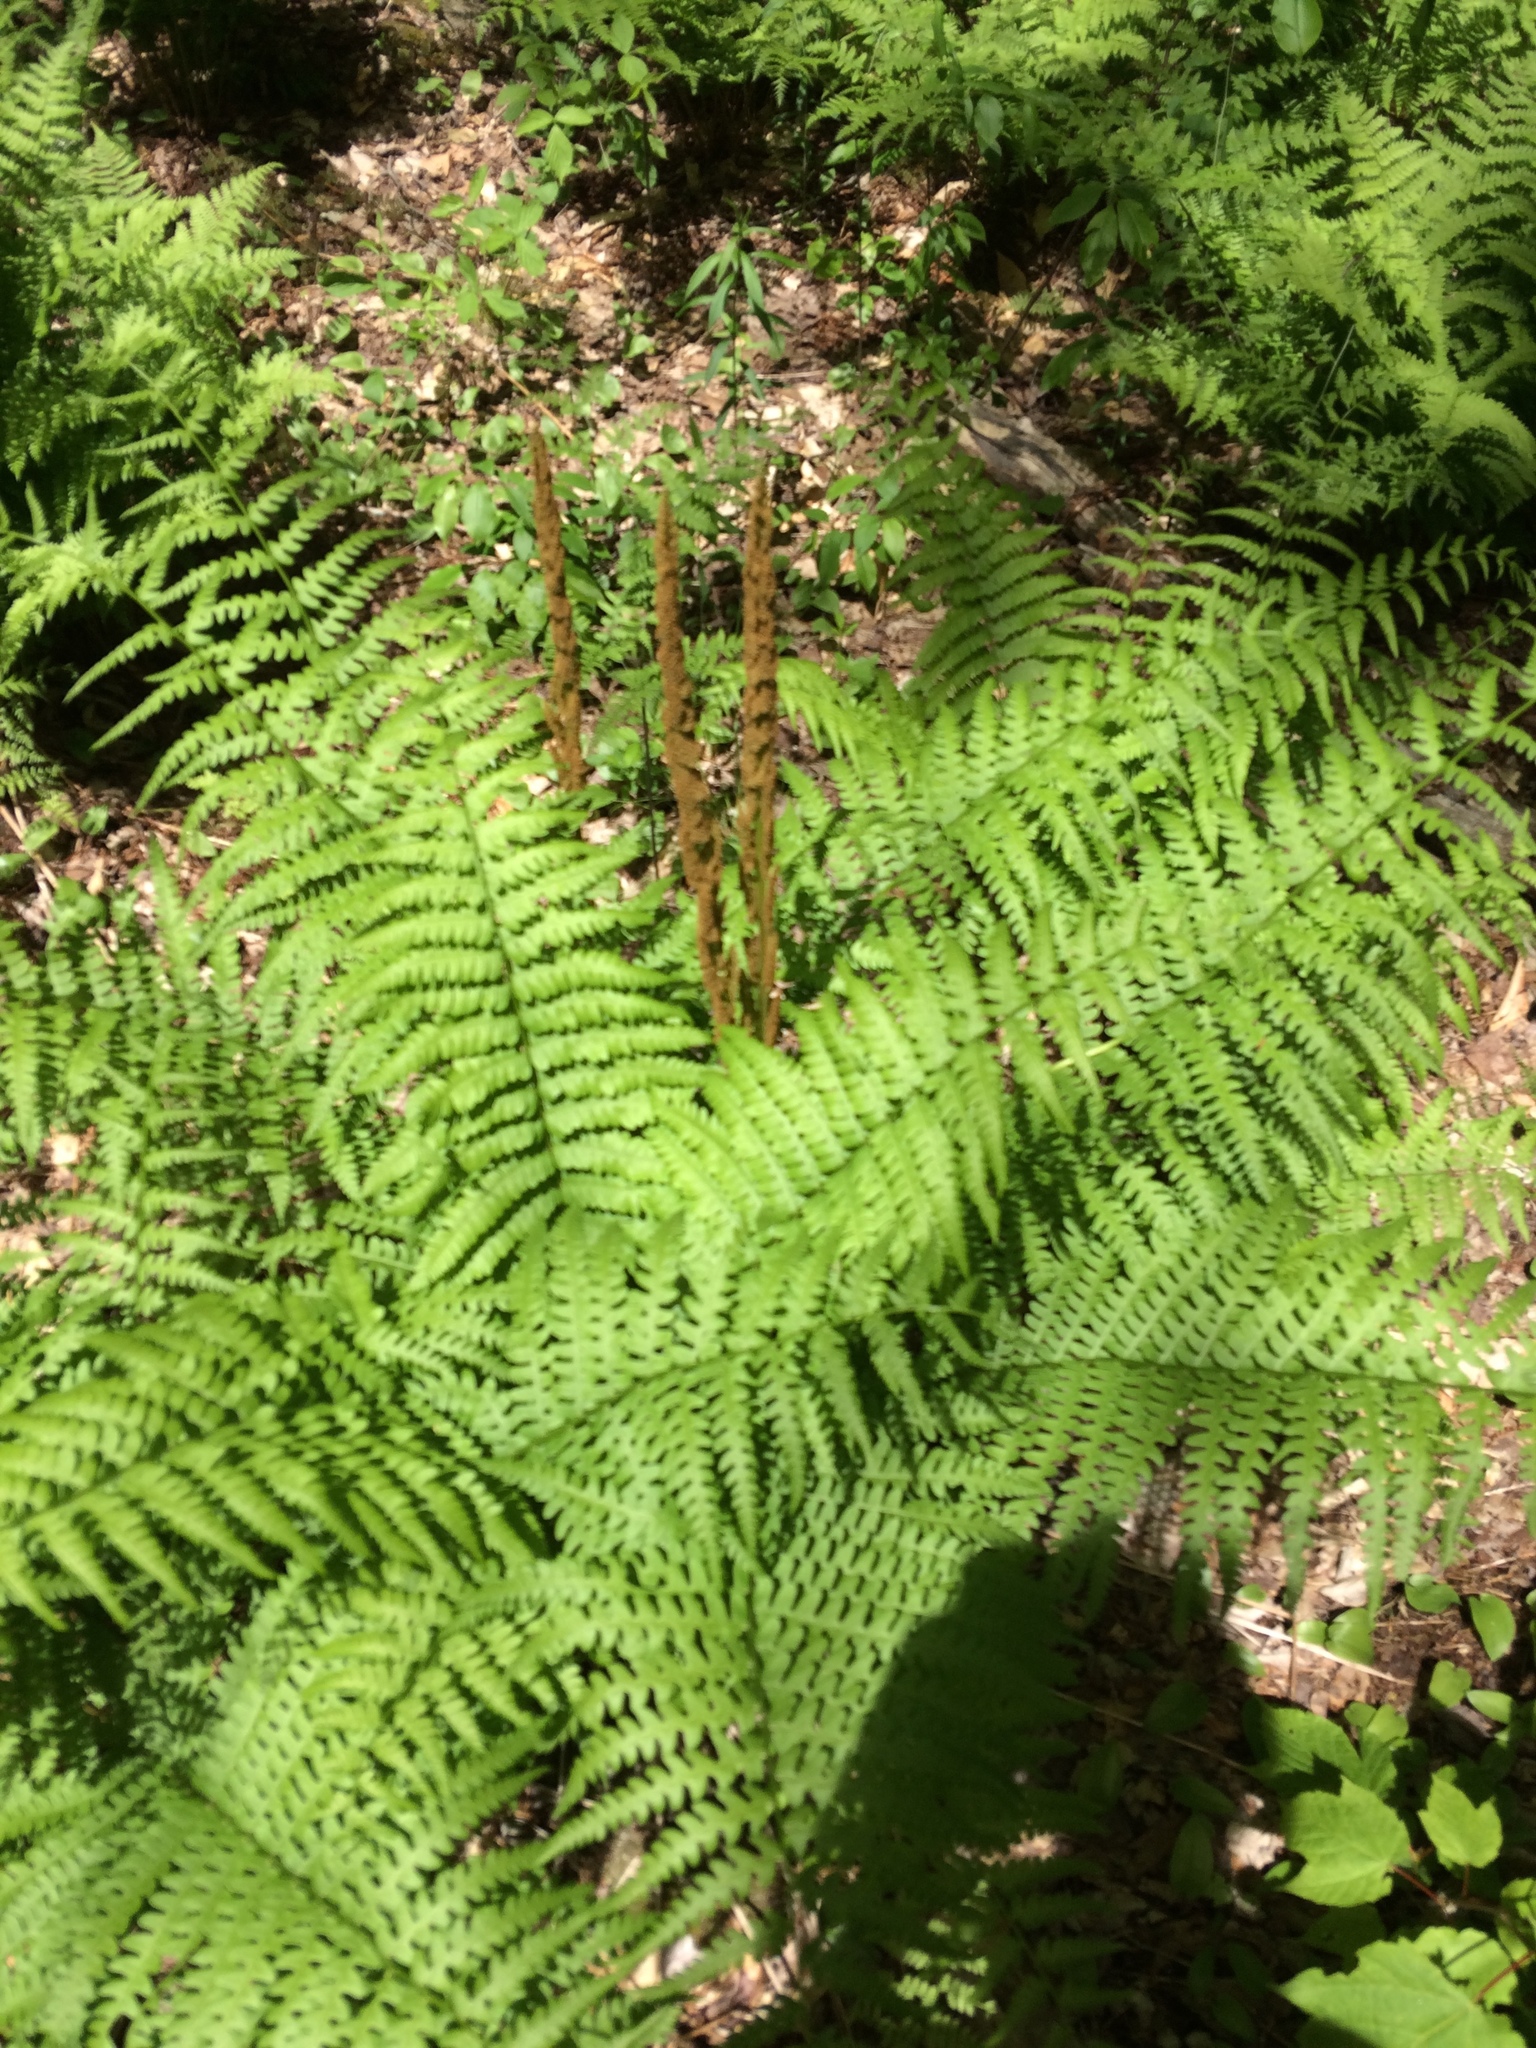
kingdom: Plantae
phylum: Tracheophyta
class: Polypodiopsida
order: Osmundales
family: Osmundaceae
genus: Osmundastrum
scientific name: Osmundastrum cinnamomeum
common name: Cinnamon fern
